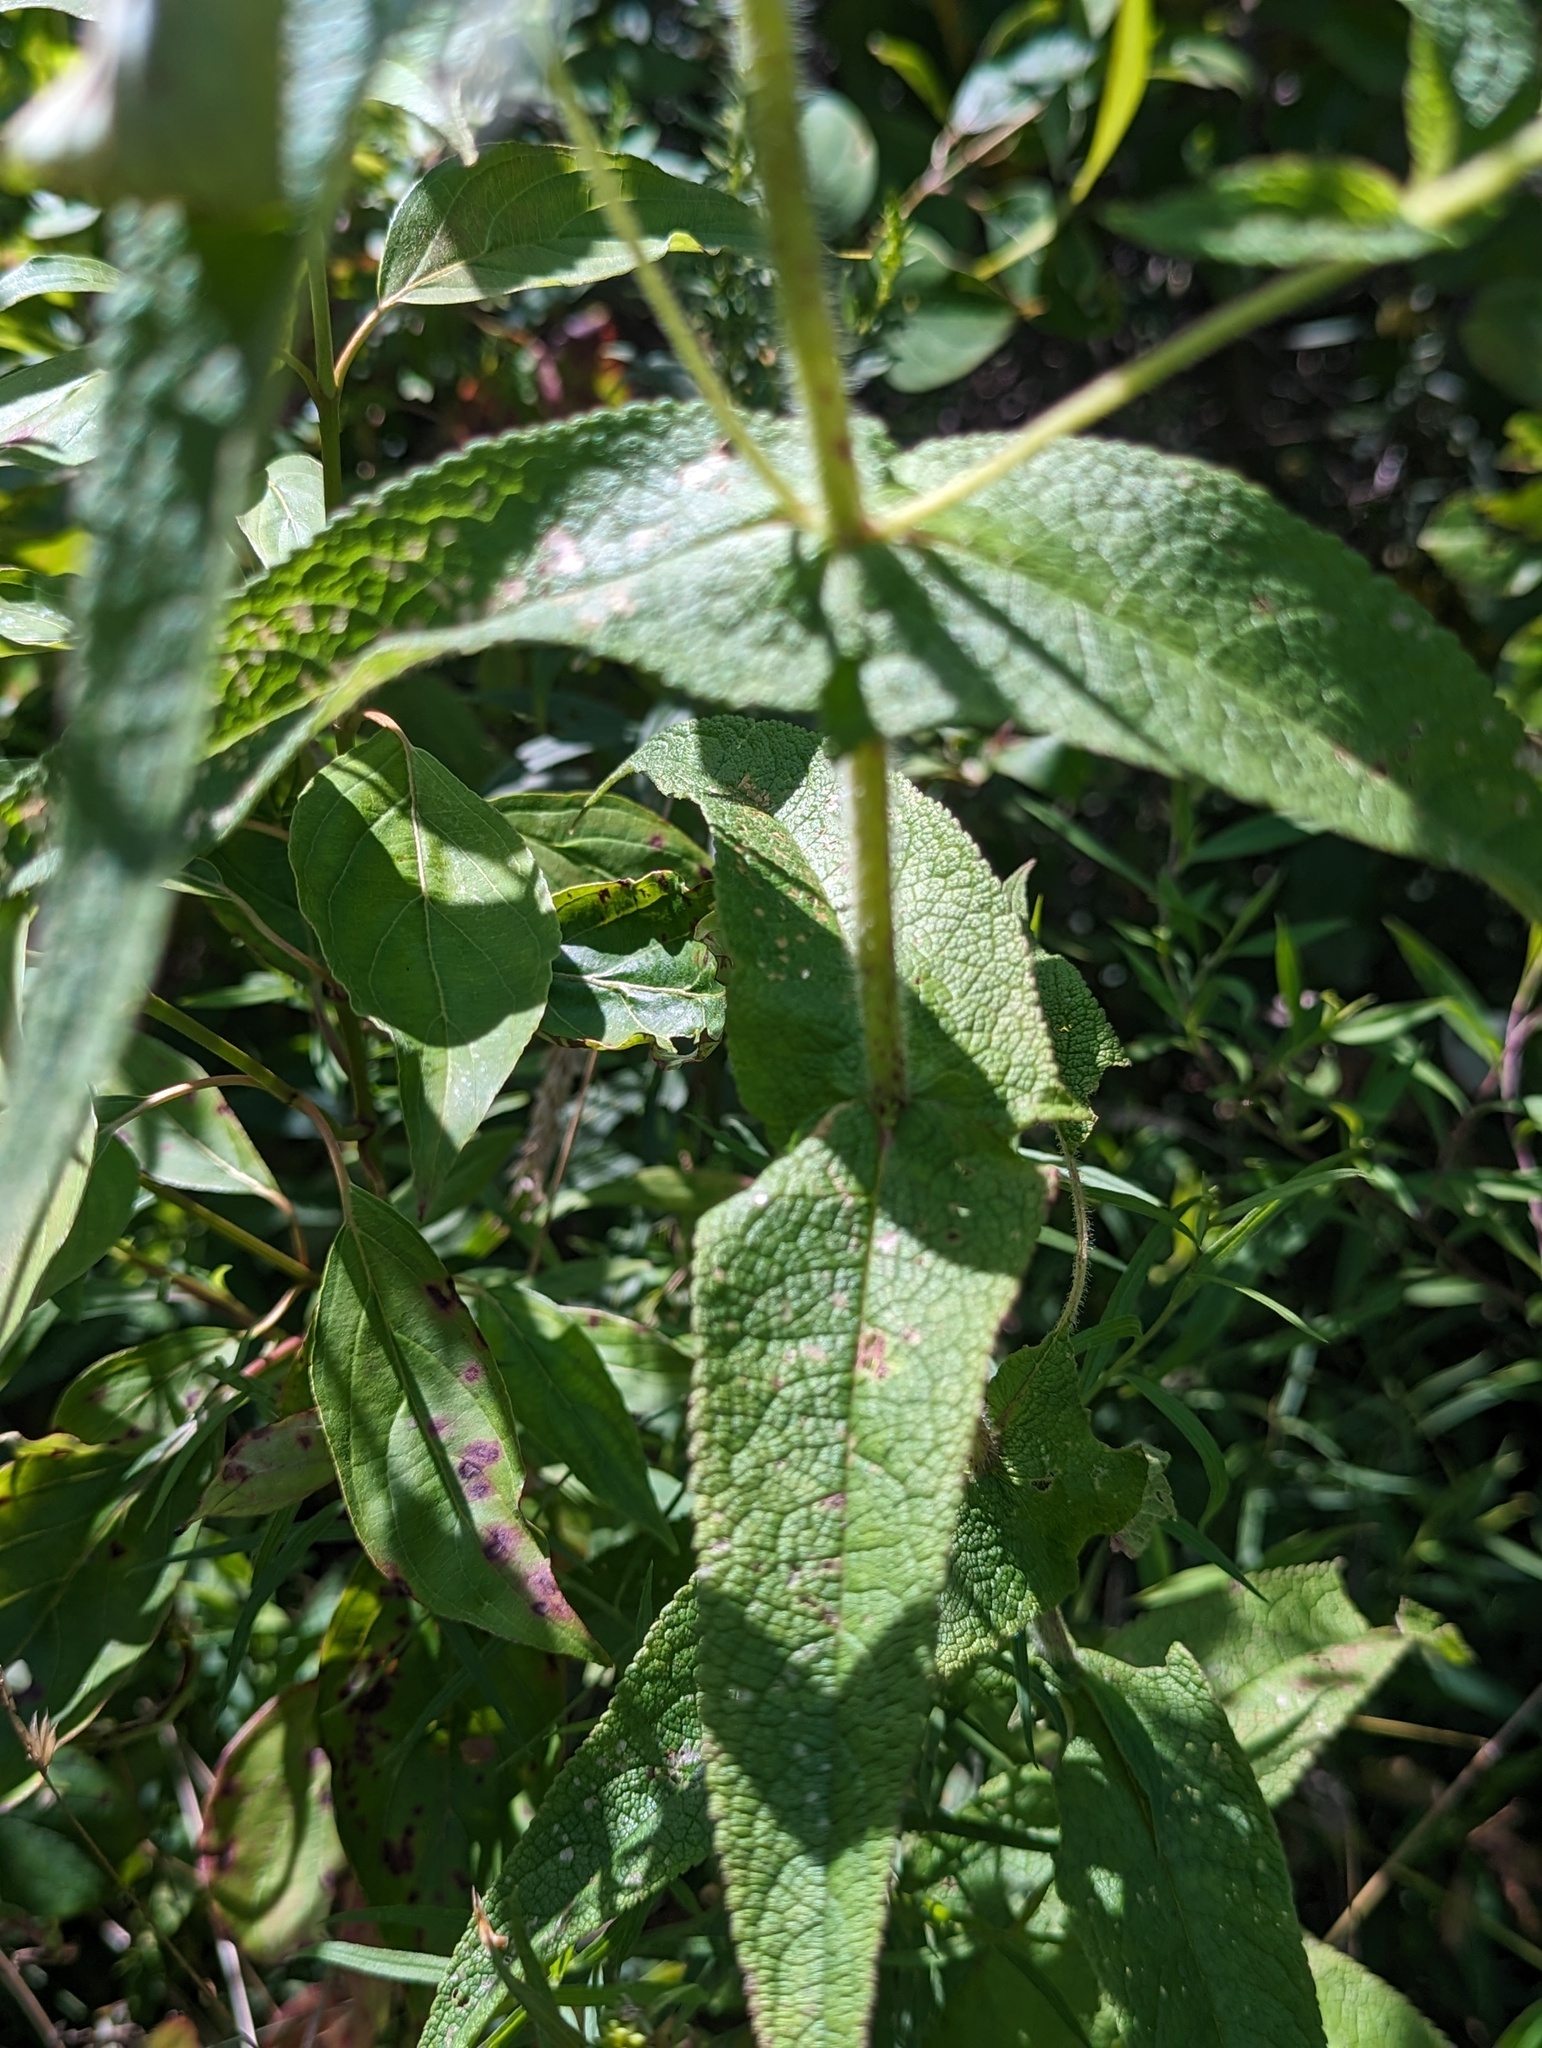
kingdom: Plantae
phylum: Tracheophyta
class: Magnoliopsida
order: Asterales
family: Asteraceae
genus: Eupatorium
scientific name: Eupatorium perfoliatum
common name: Boneset
